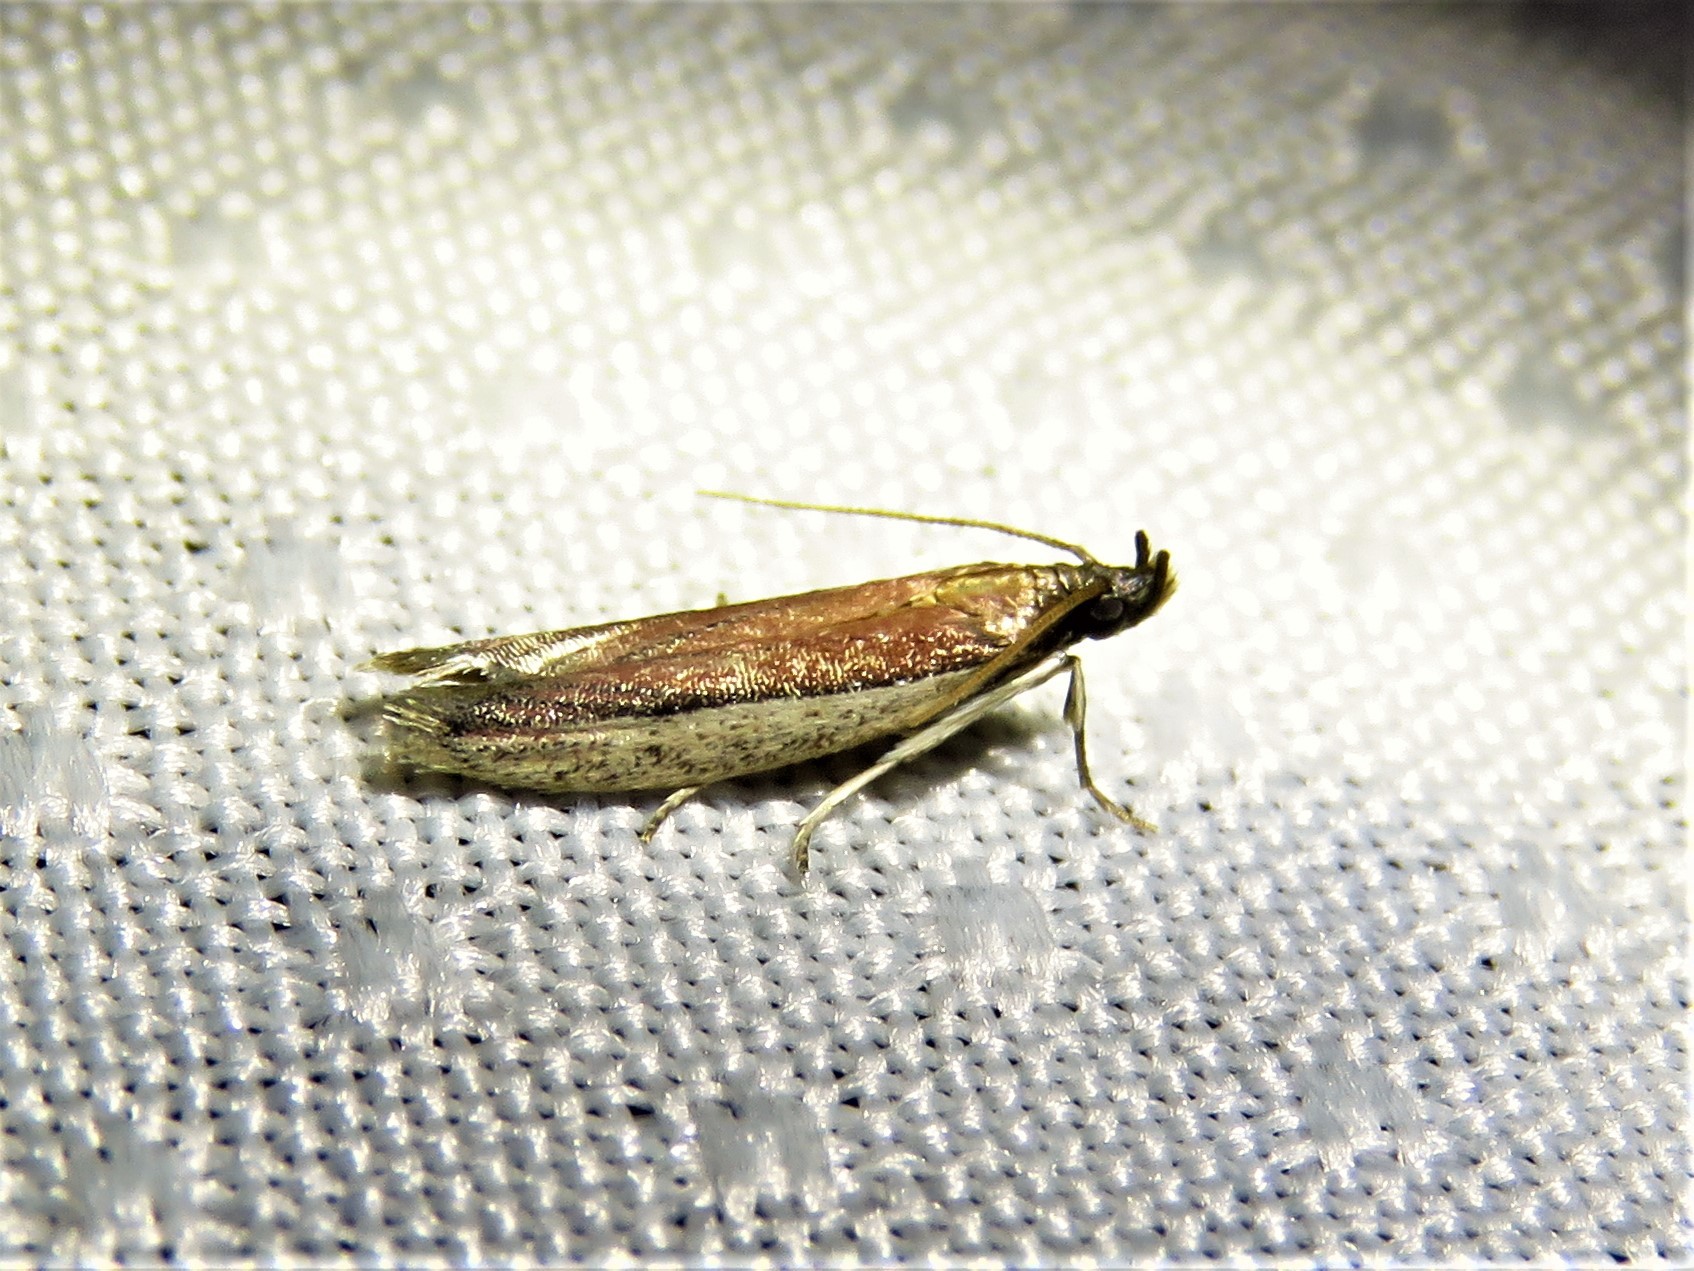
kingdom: Animalia
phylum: Arthropoda
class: Insecta
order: Lepidoptera
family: Pyralidae
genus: Tampa
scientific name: Tampa dimediatella
